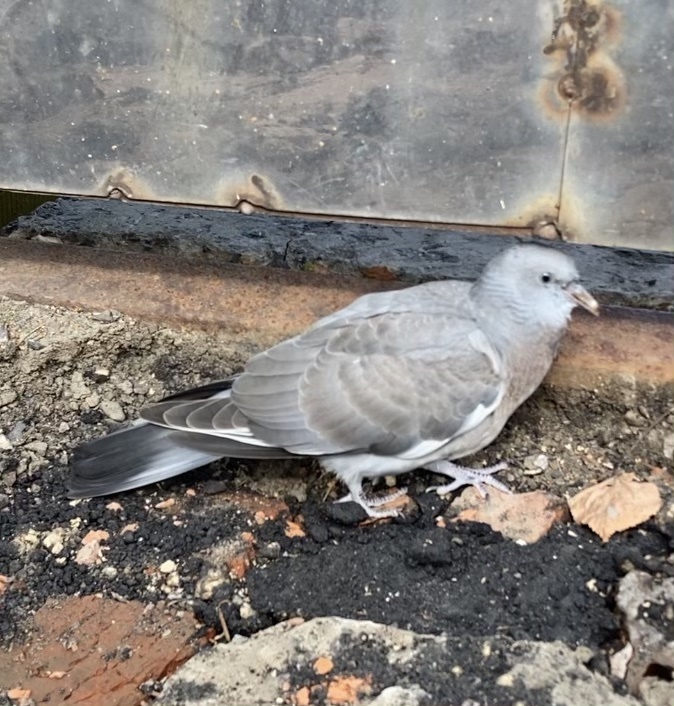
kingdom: Animalia
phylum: Chordata
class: Aves
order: Columbiformes
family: Columbidae
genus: Columba
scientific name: Columba palumbus
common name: Common wood pigeon
